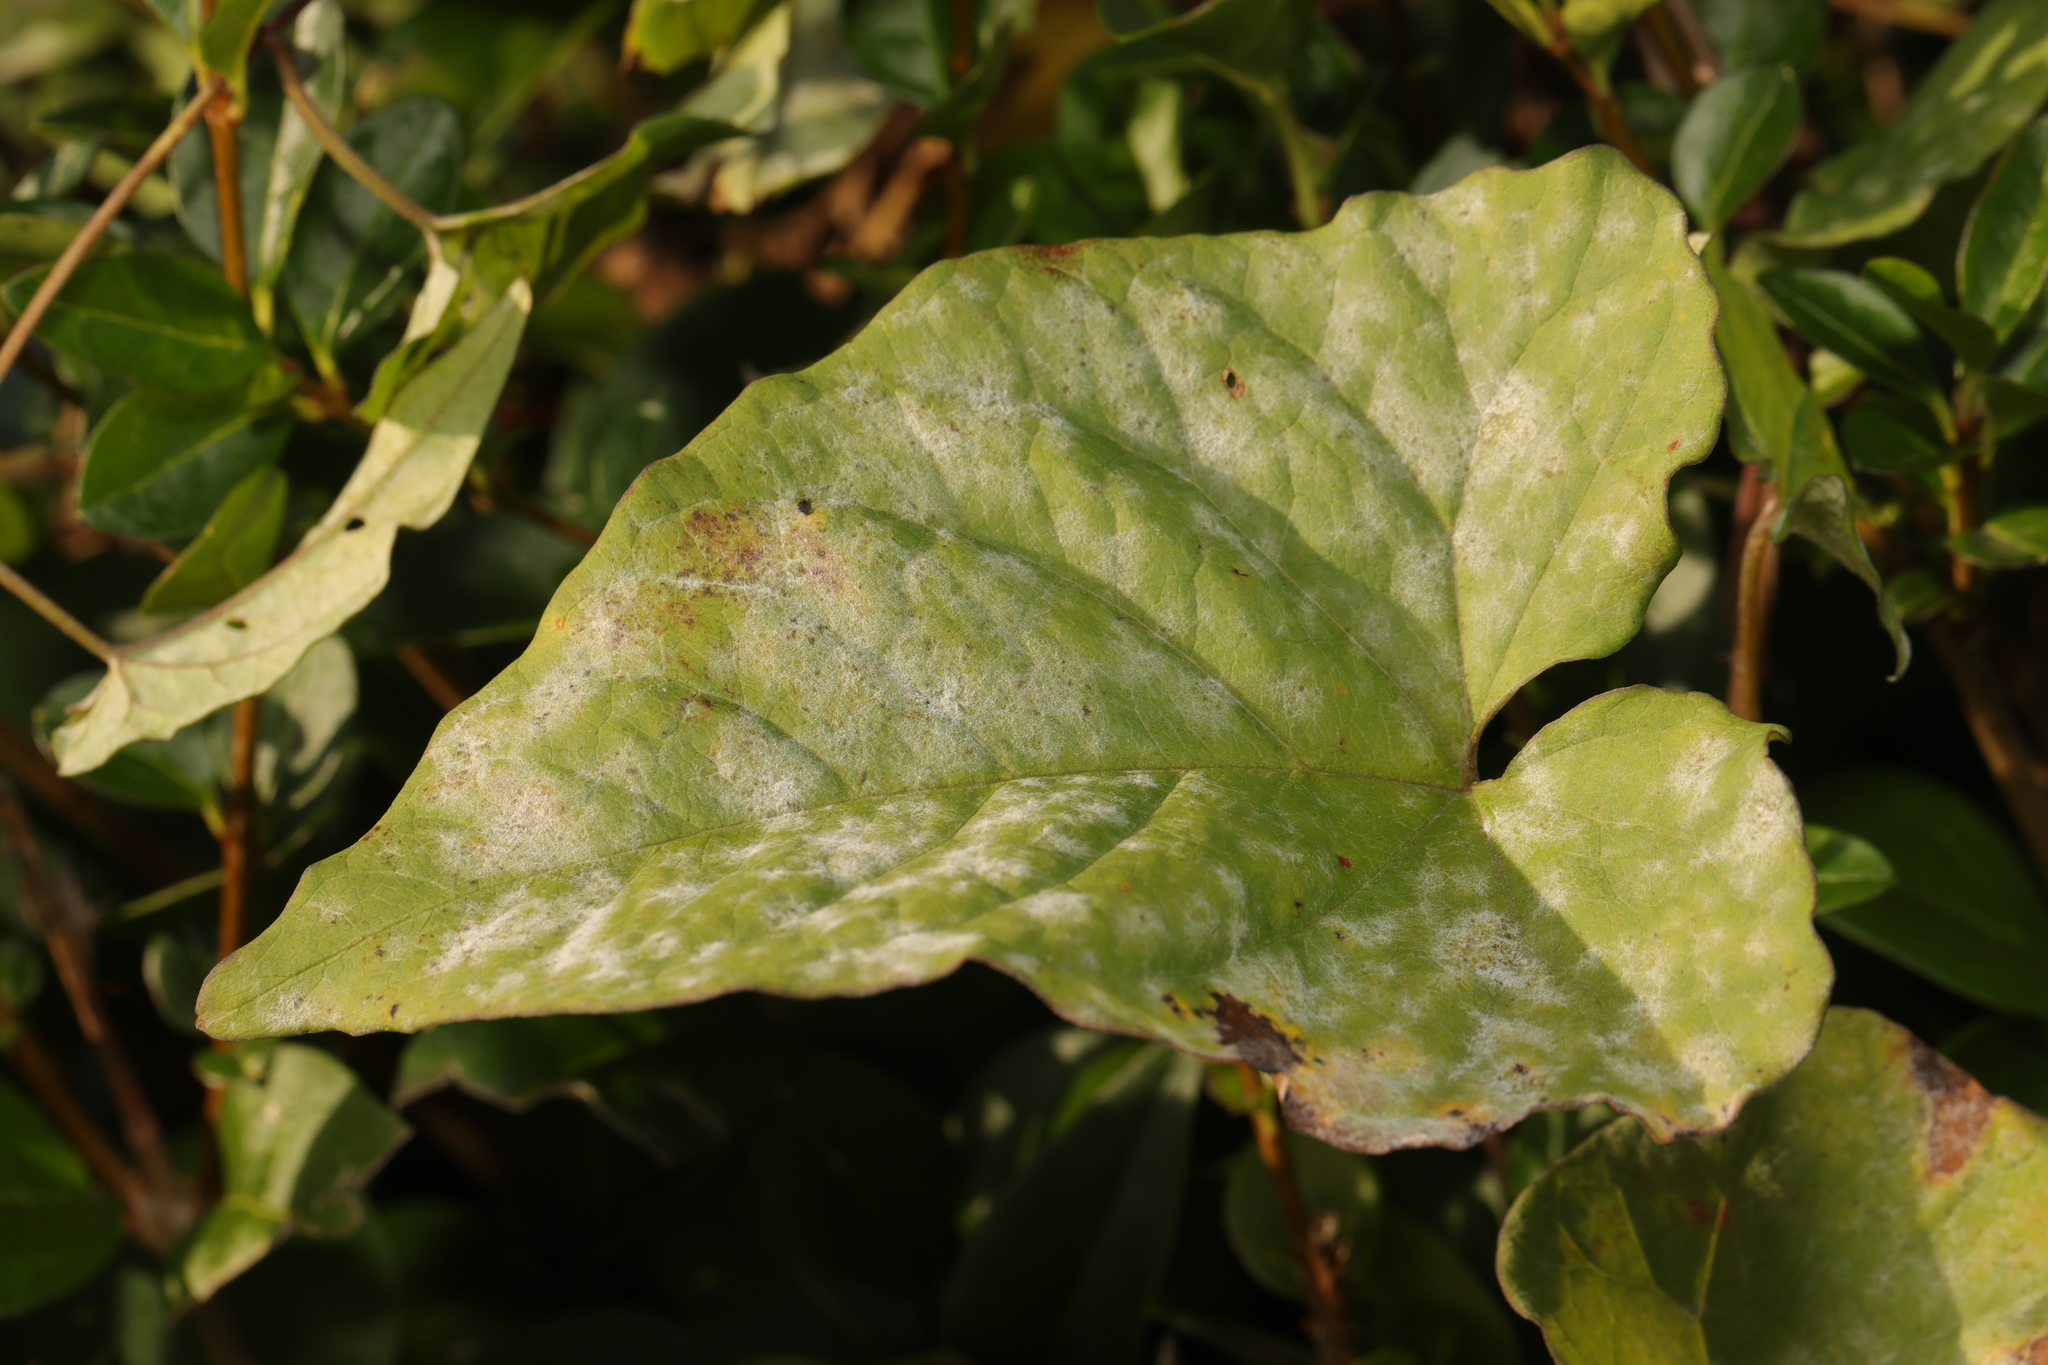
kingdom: Fungi
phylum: Ascomycota
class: Leotiomycetes
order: Helotiales
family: Erysiphaceae
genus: Erysiphe
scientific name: Erysiphe convolvuli
